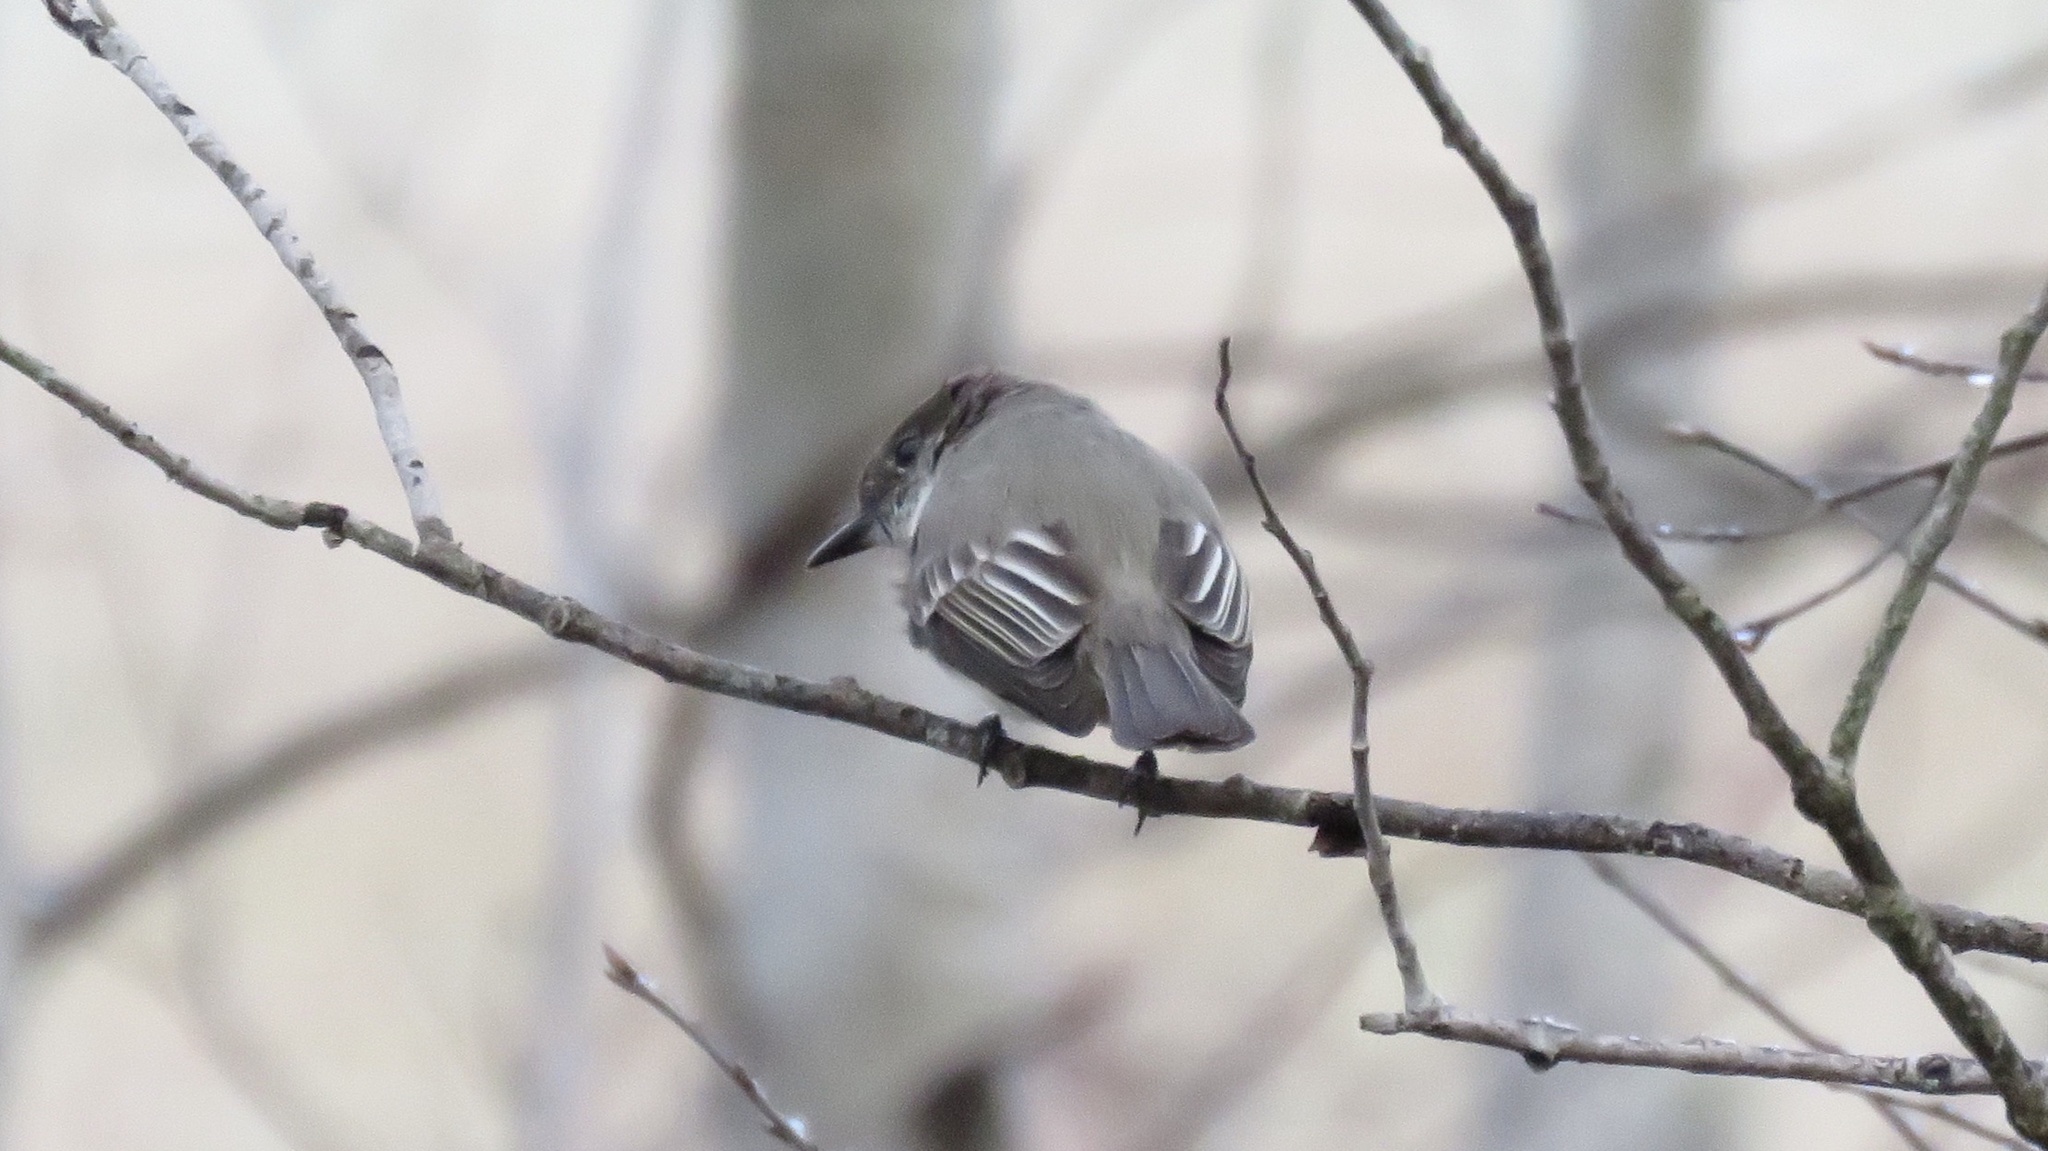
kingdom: Animalia
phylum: Chordata
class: Aves
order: Passeriformes
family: Tyrannidae
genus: Sayornis
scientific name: Sayornis phoebe
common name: Eastern phoebe
